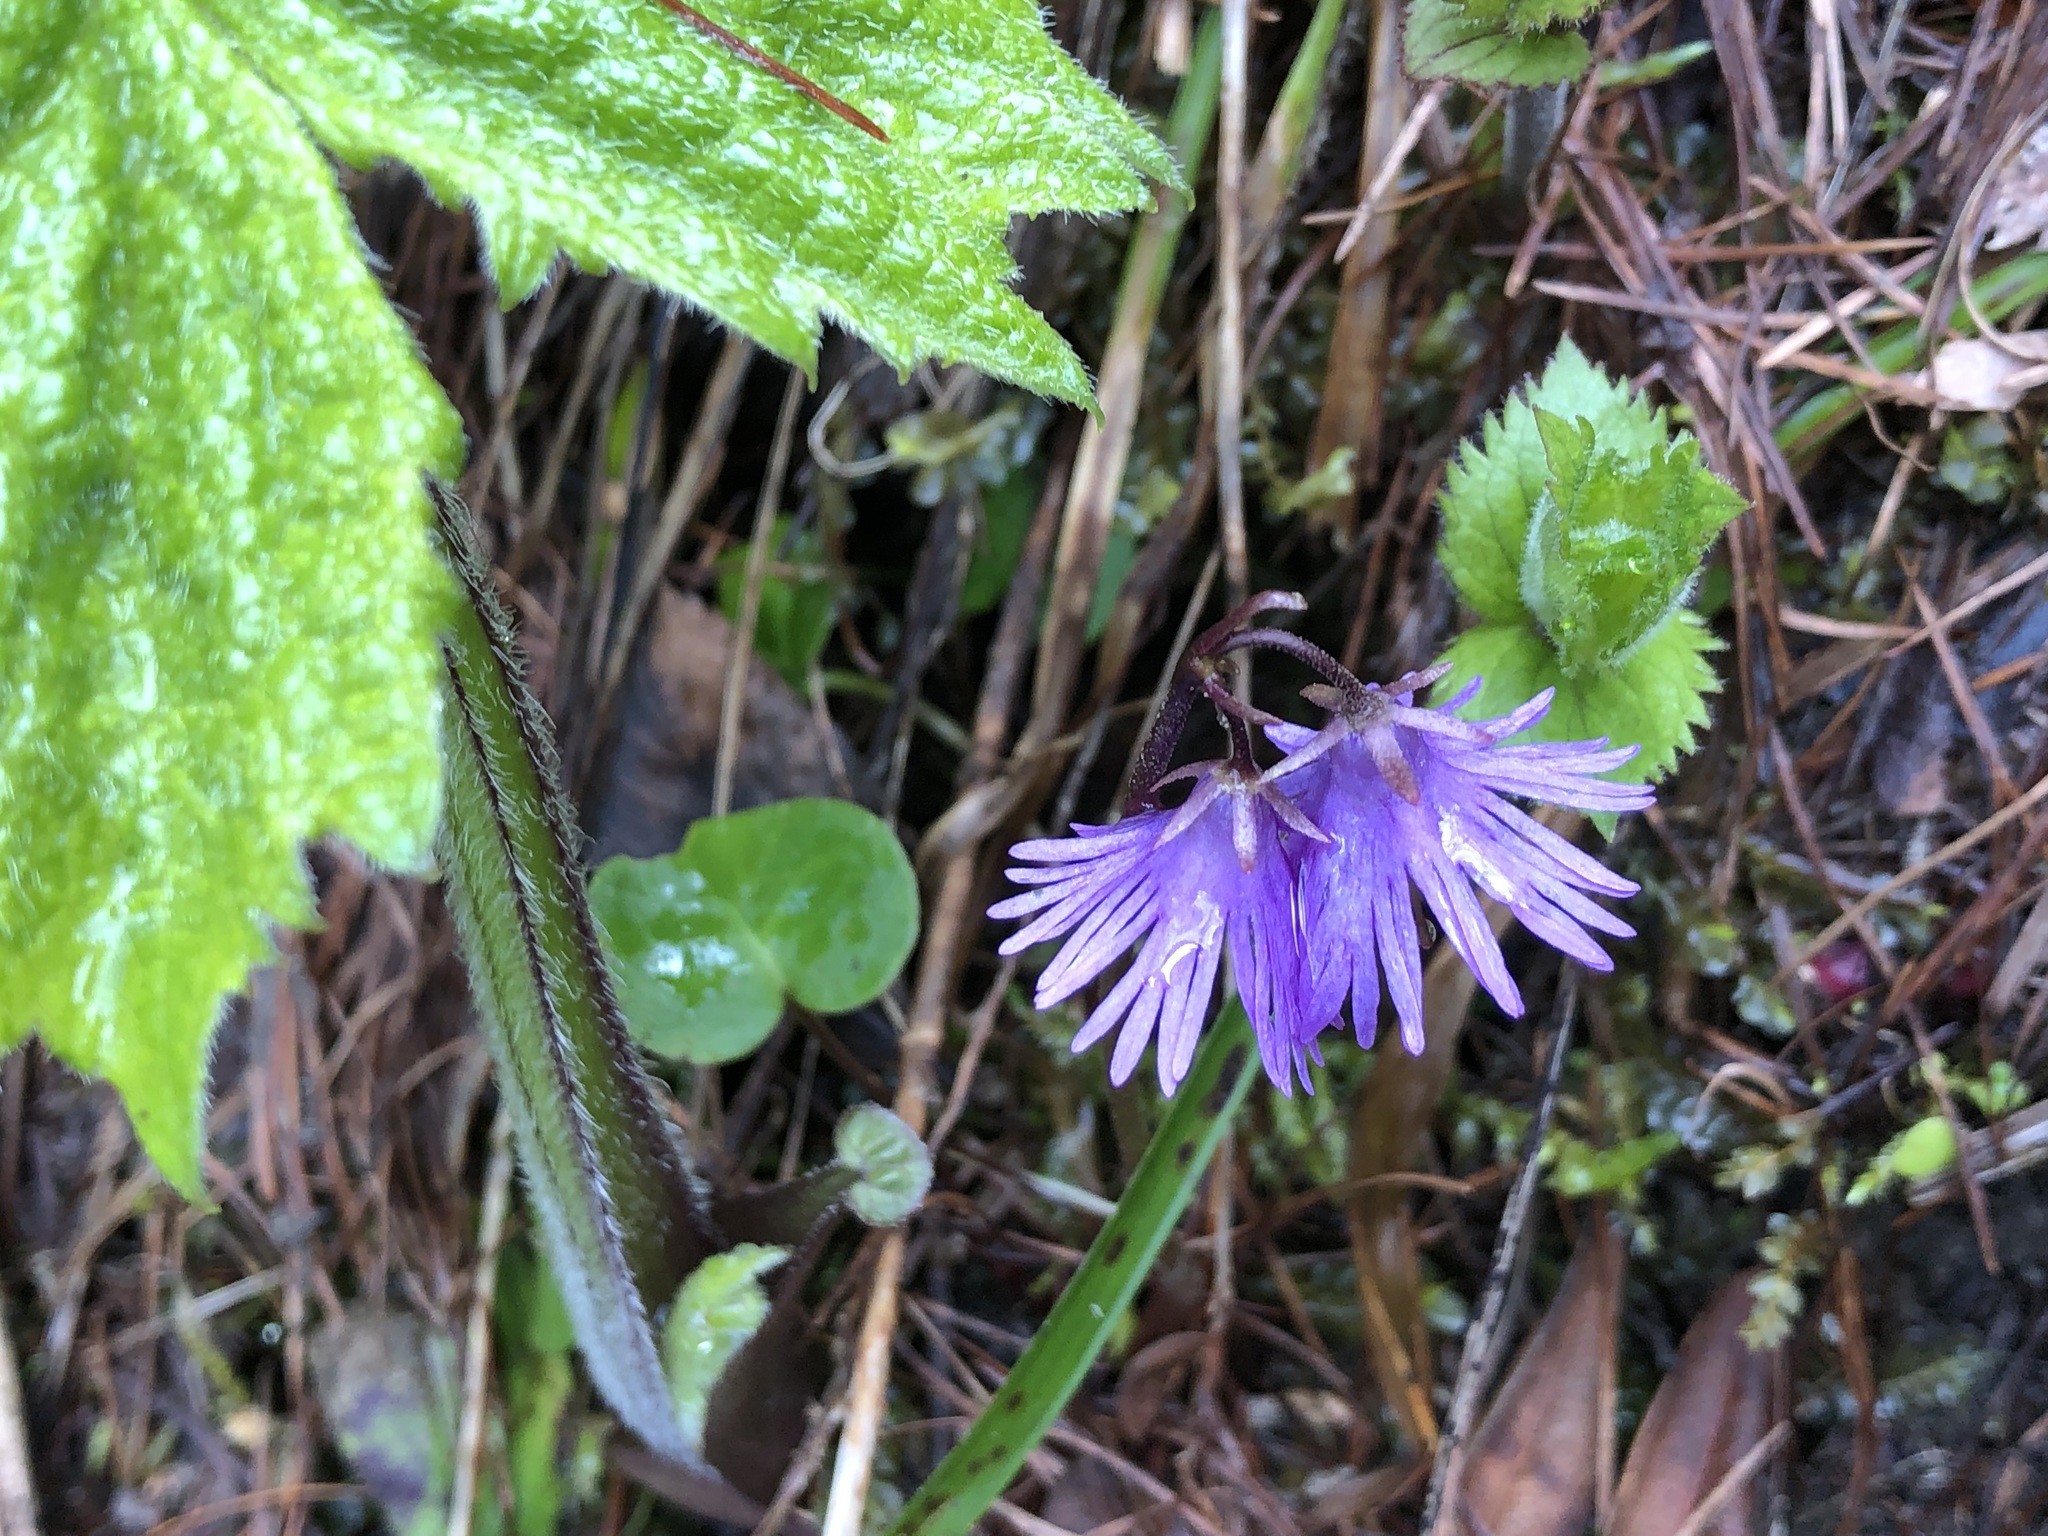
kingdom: Plantae
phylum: Tracheophyta
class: Magnoliopsida
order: Ericales
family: Primulaceae
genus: Soldanella
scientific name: Soldanella alpina
